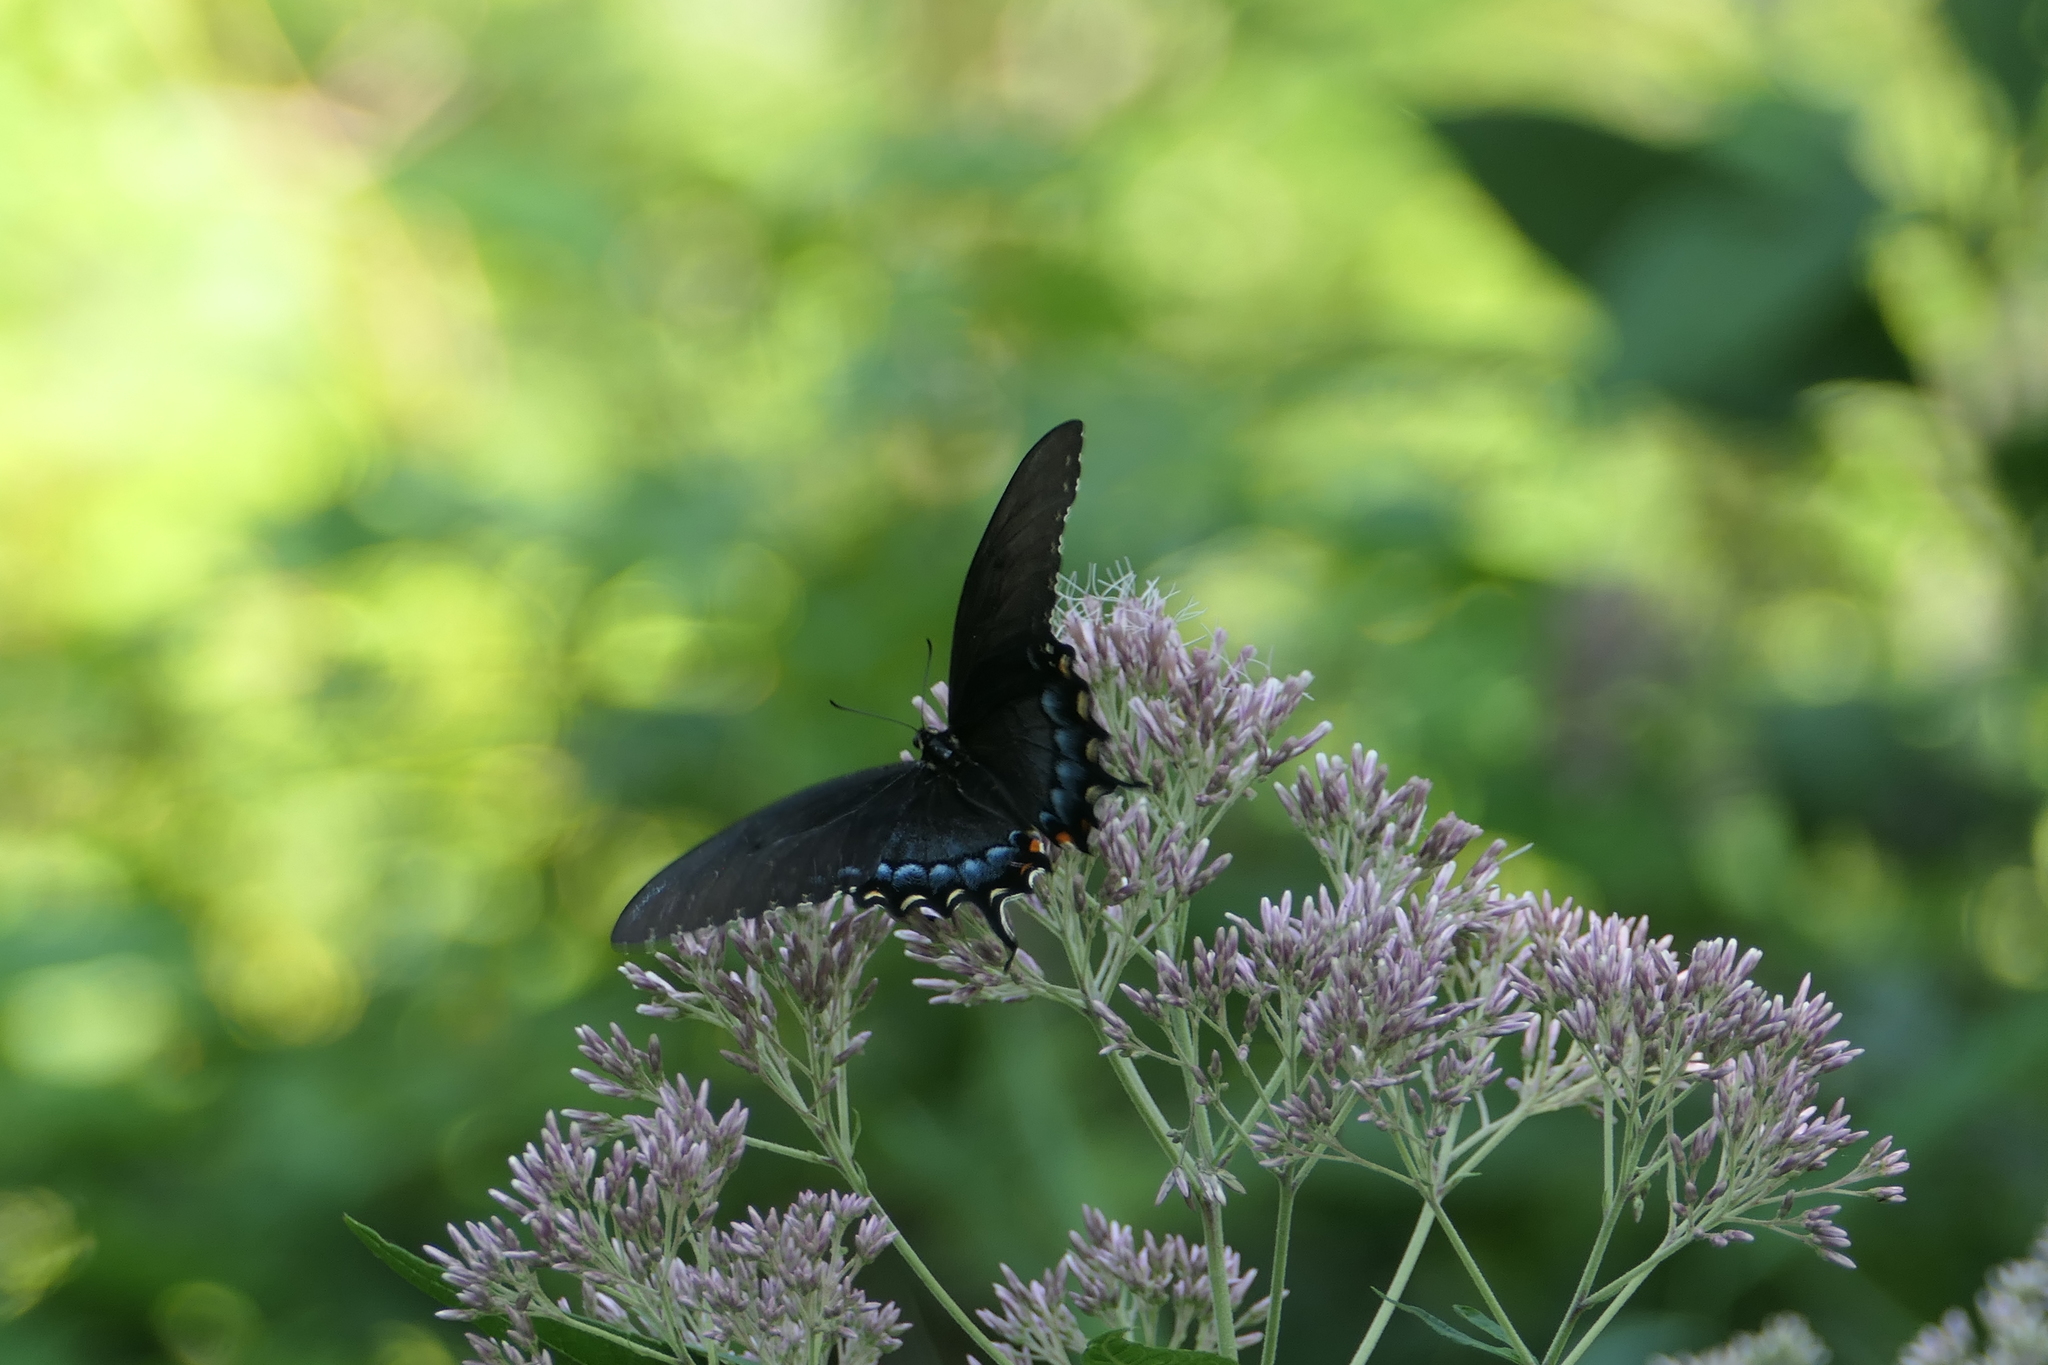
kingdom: Animalia
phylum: Arthropoda
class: Insecta
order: Lepidoptera
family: Papilionidae
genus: Papilio
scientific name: Papilio glaucus
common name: Tiger swallowtail
